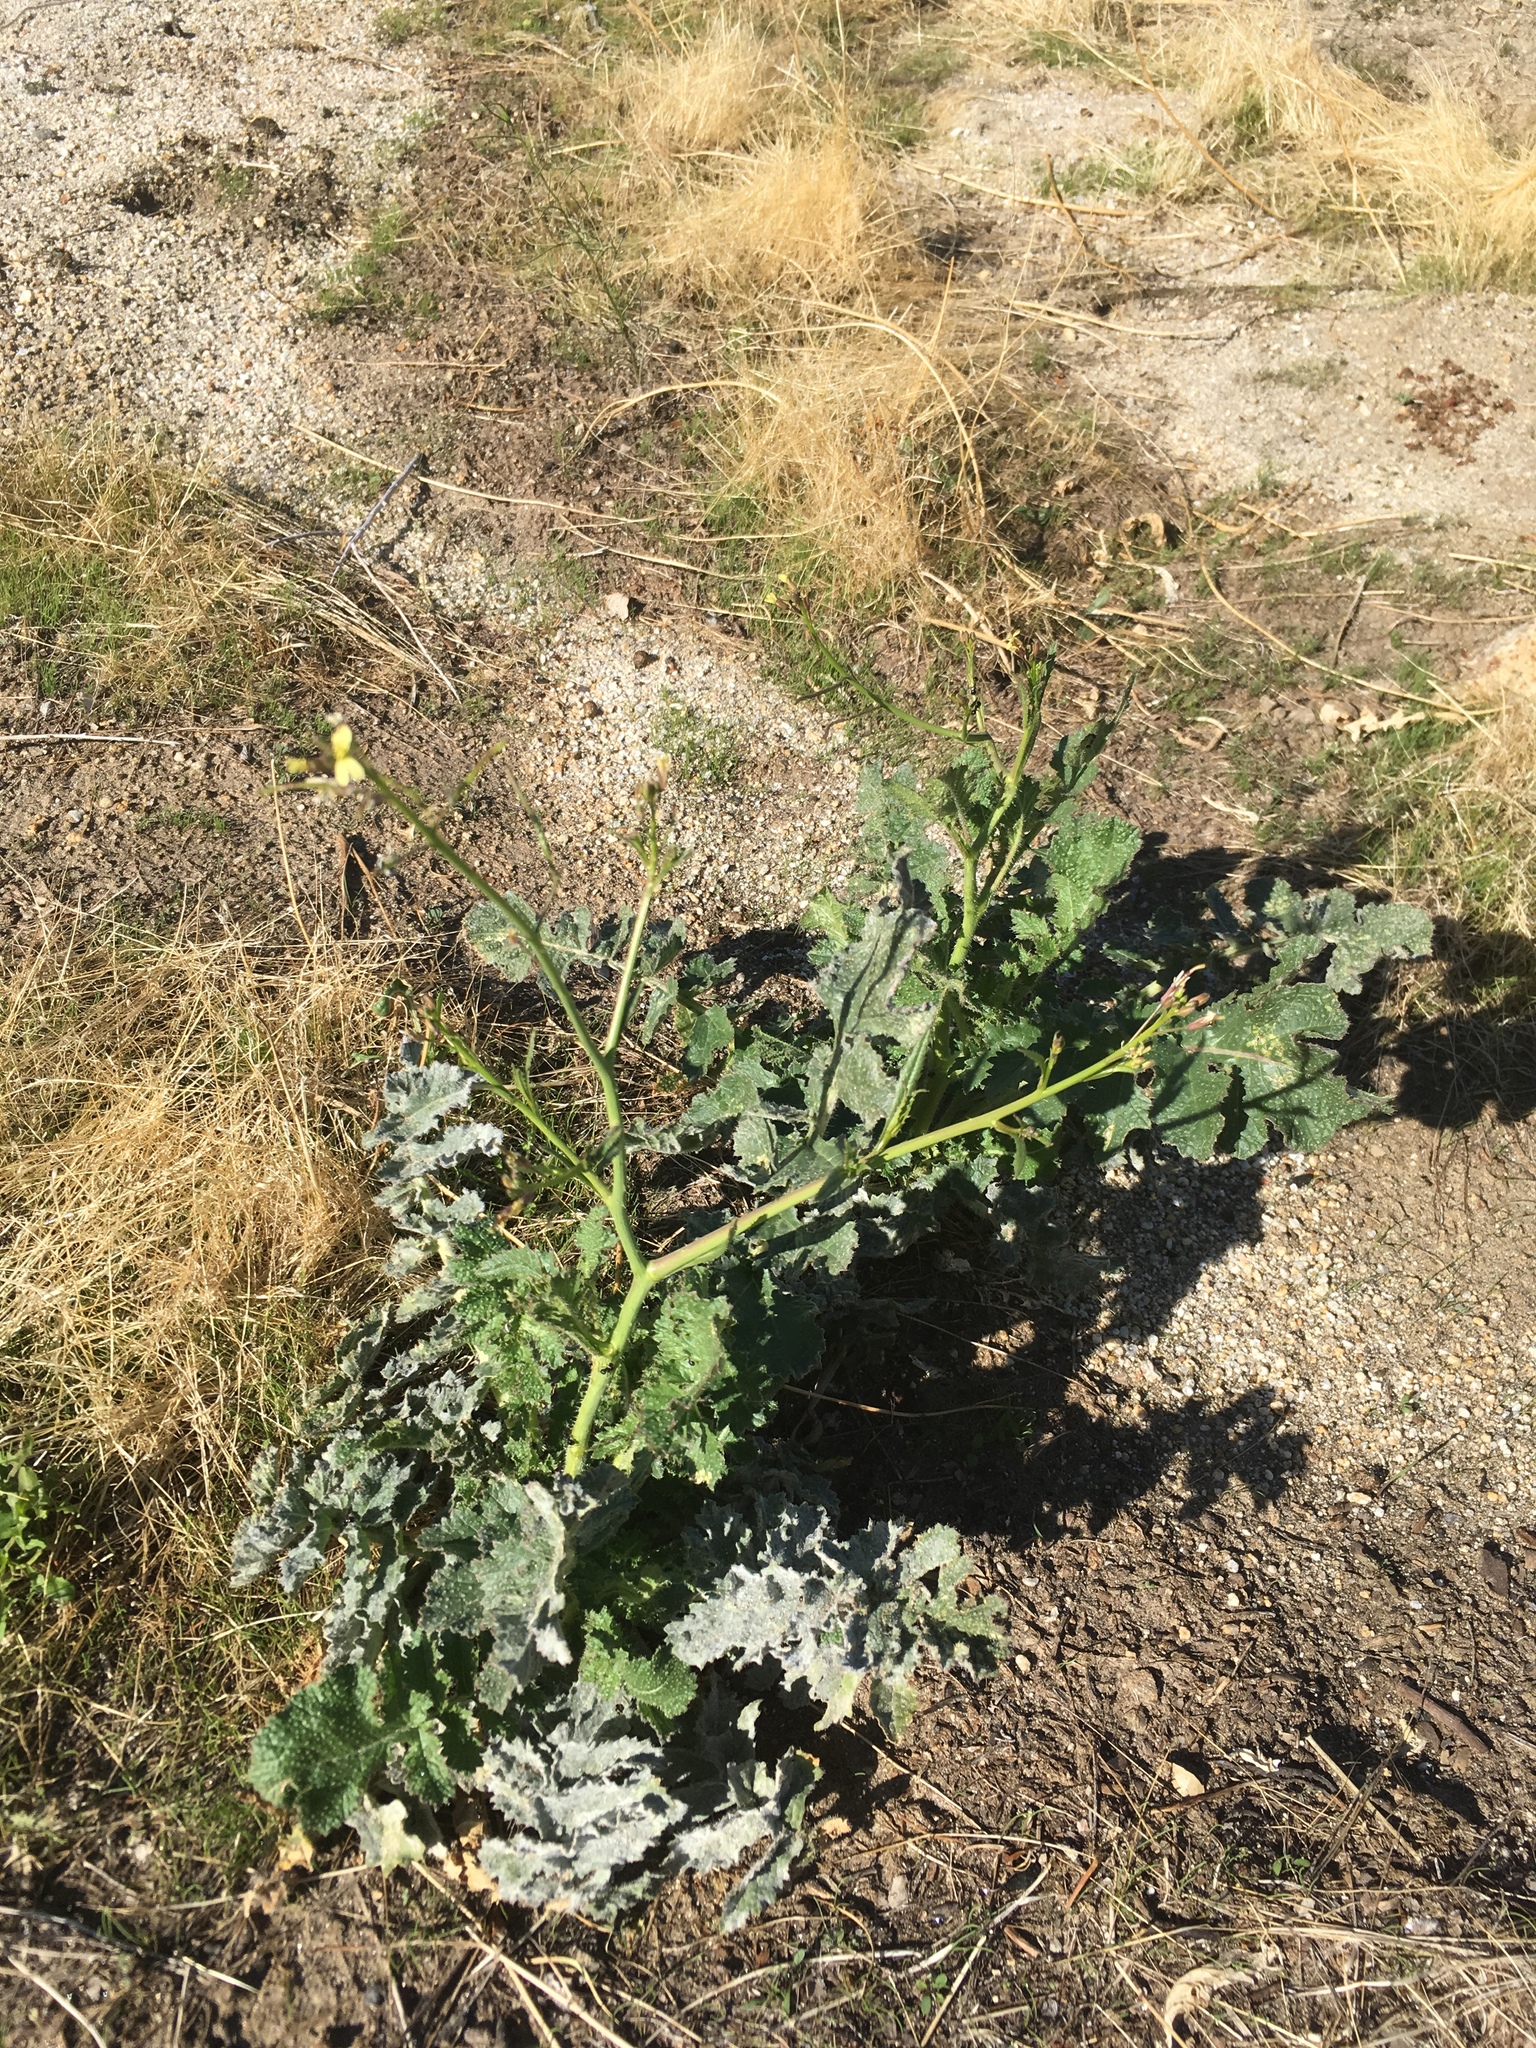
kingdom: Plantae
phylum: Tracheophyta
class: Magnoliopsida
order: Brassicales
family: Brassicaceae
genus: Brassica
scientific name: Brassica tournefortii
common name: Pale cabbage
